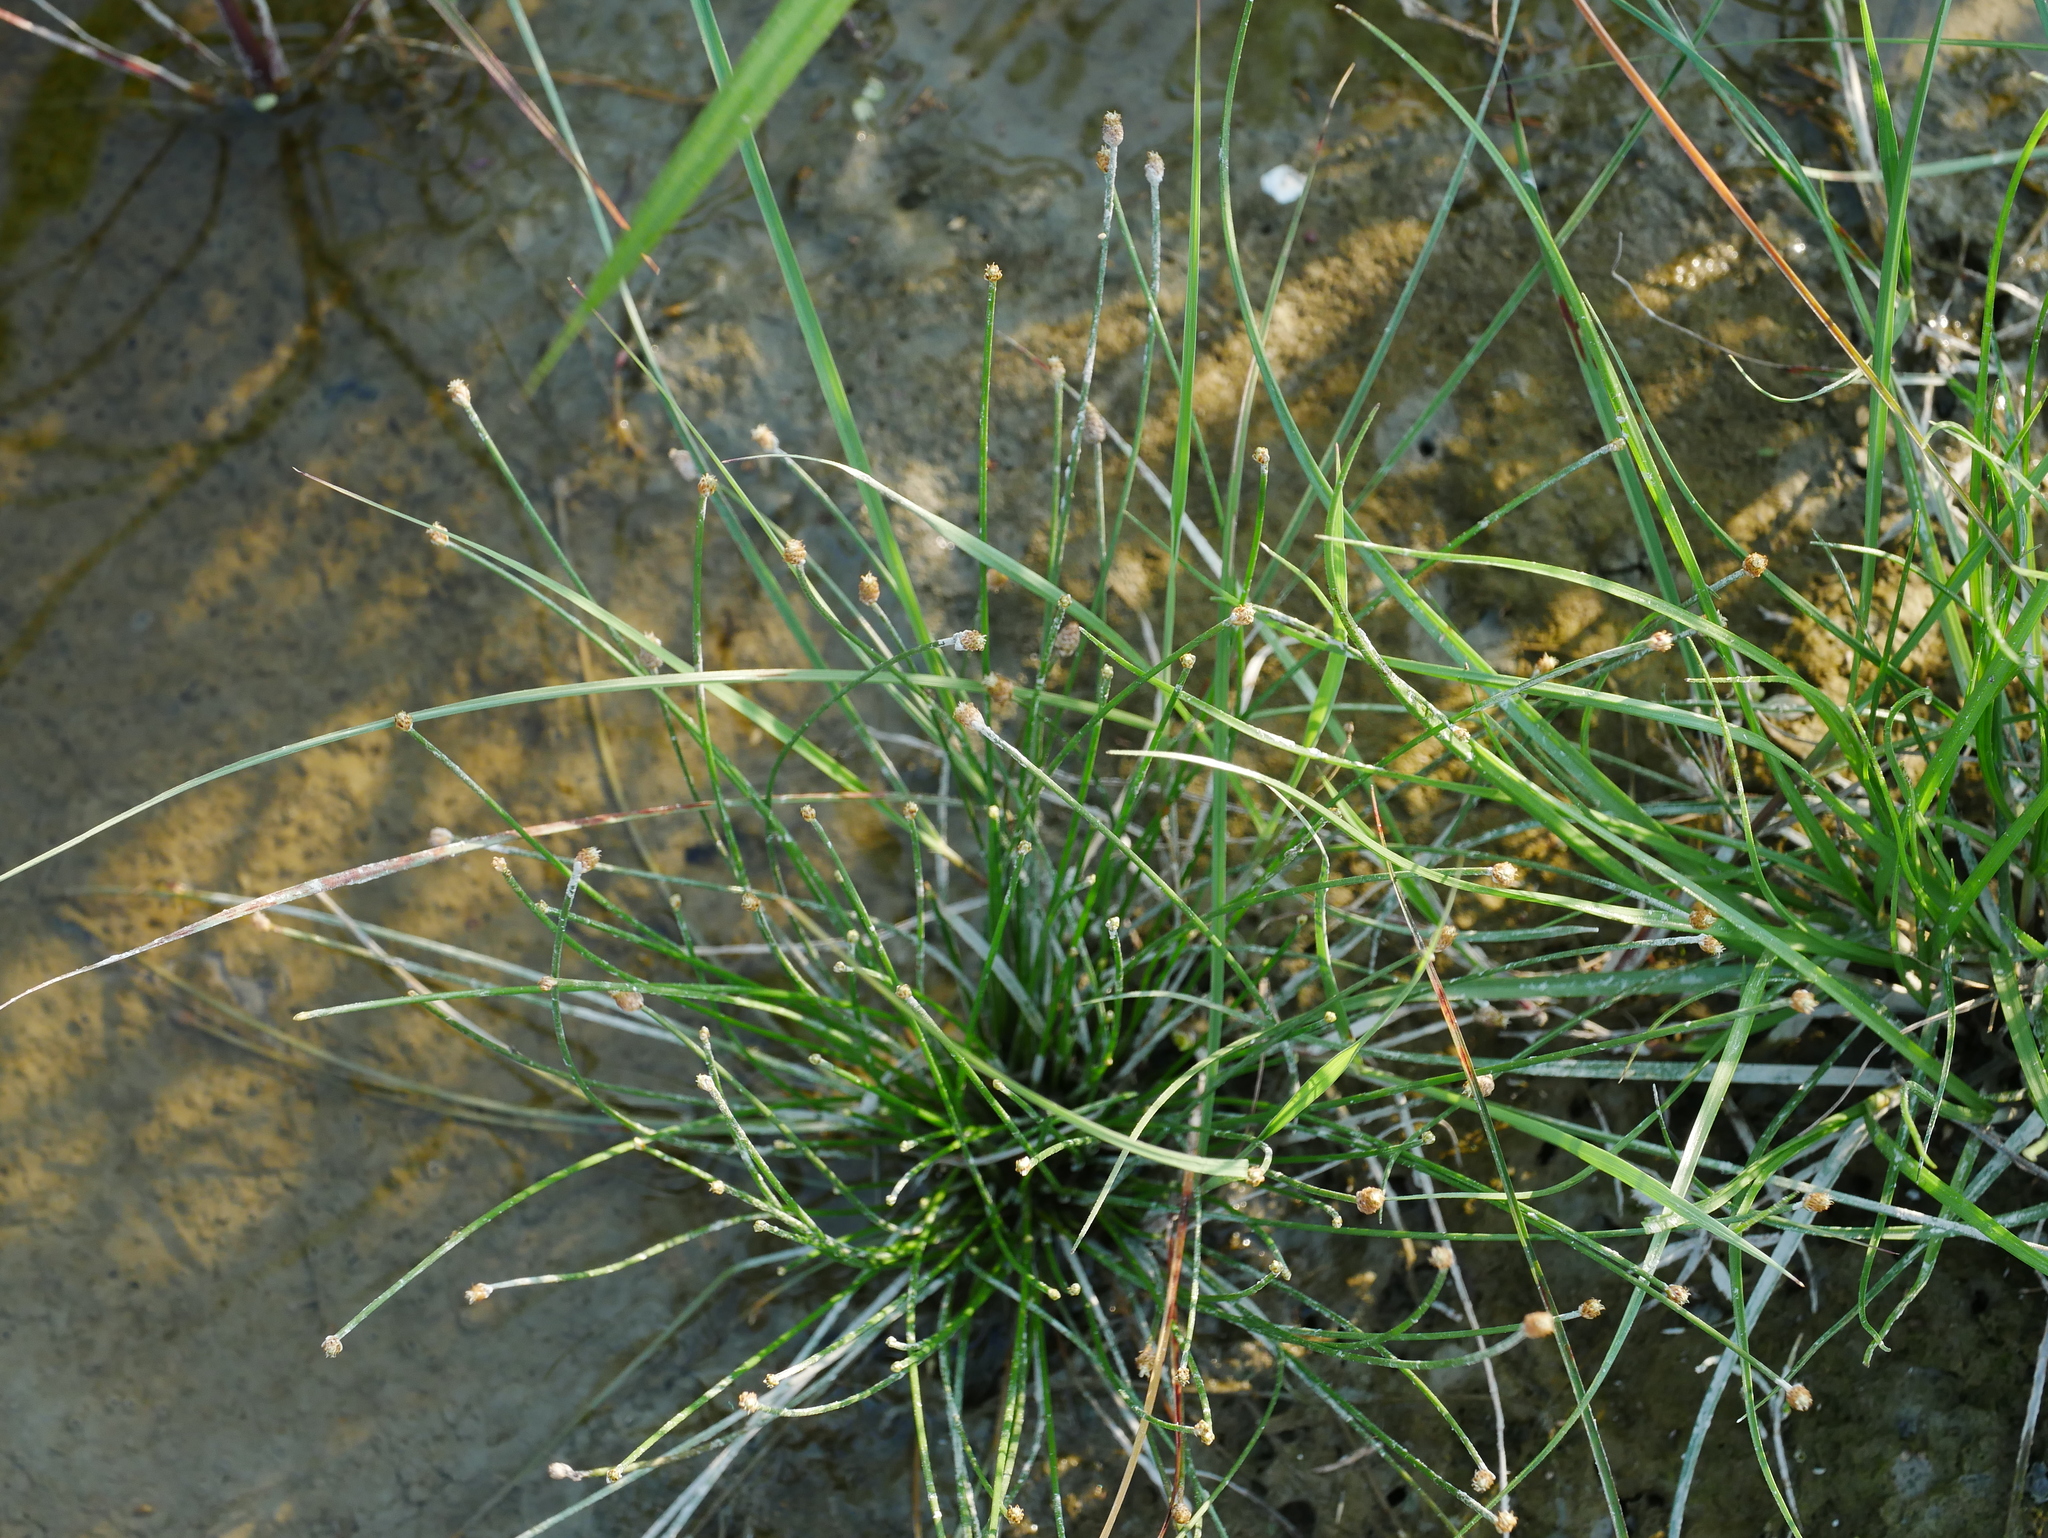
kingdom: Plantae
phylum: Tracheophyta
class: Liliopsida
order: Poales
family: Cyperaceae
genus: Eleocharis
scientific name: Eleocharis geniculata
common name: Canada spikesedge
